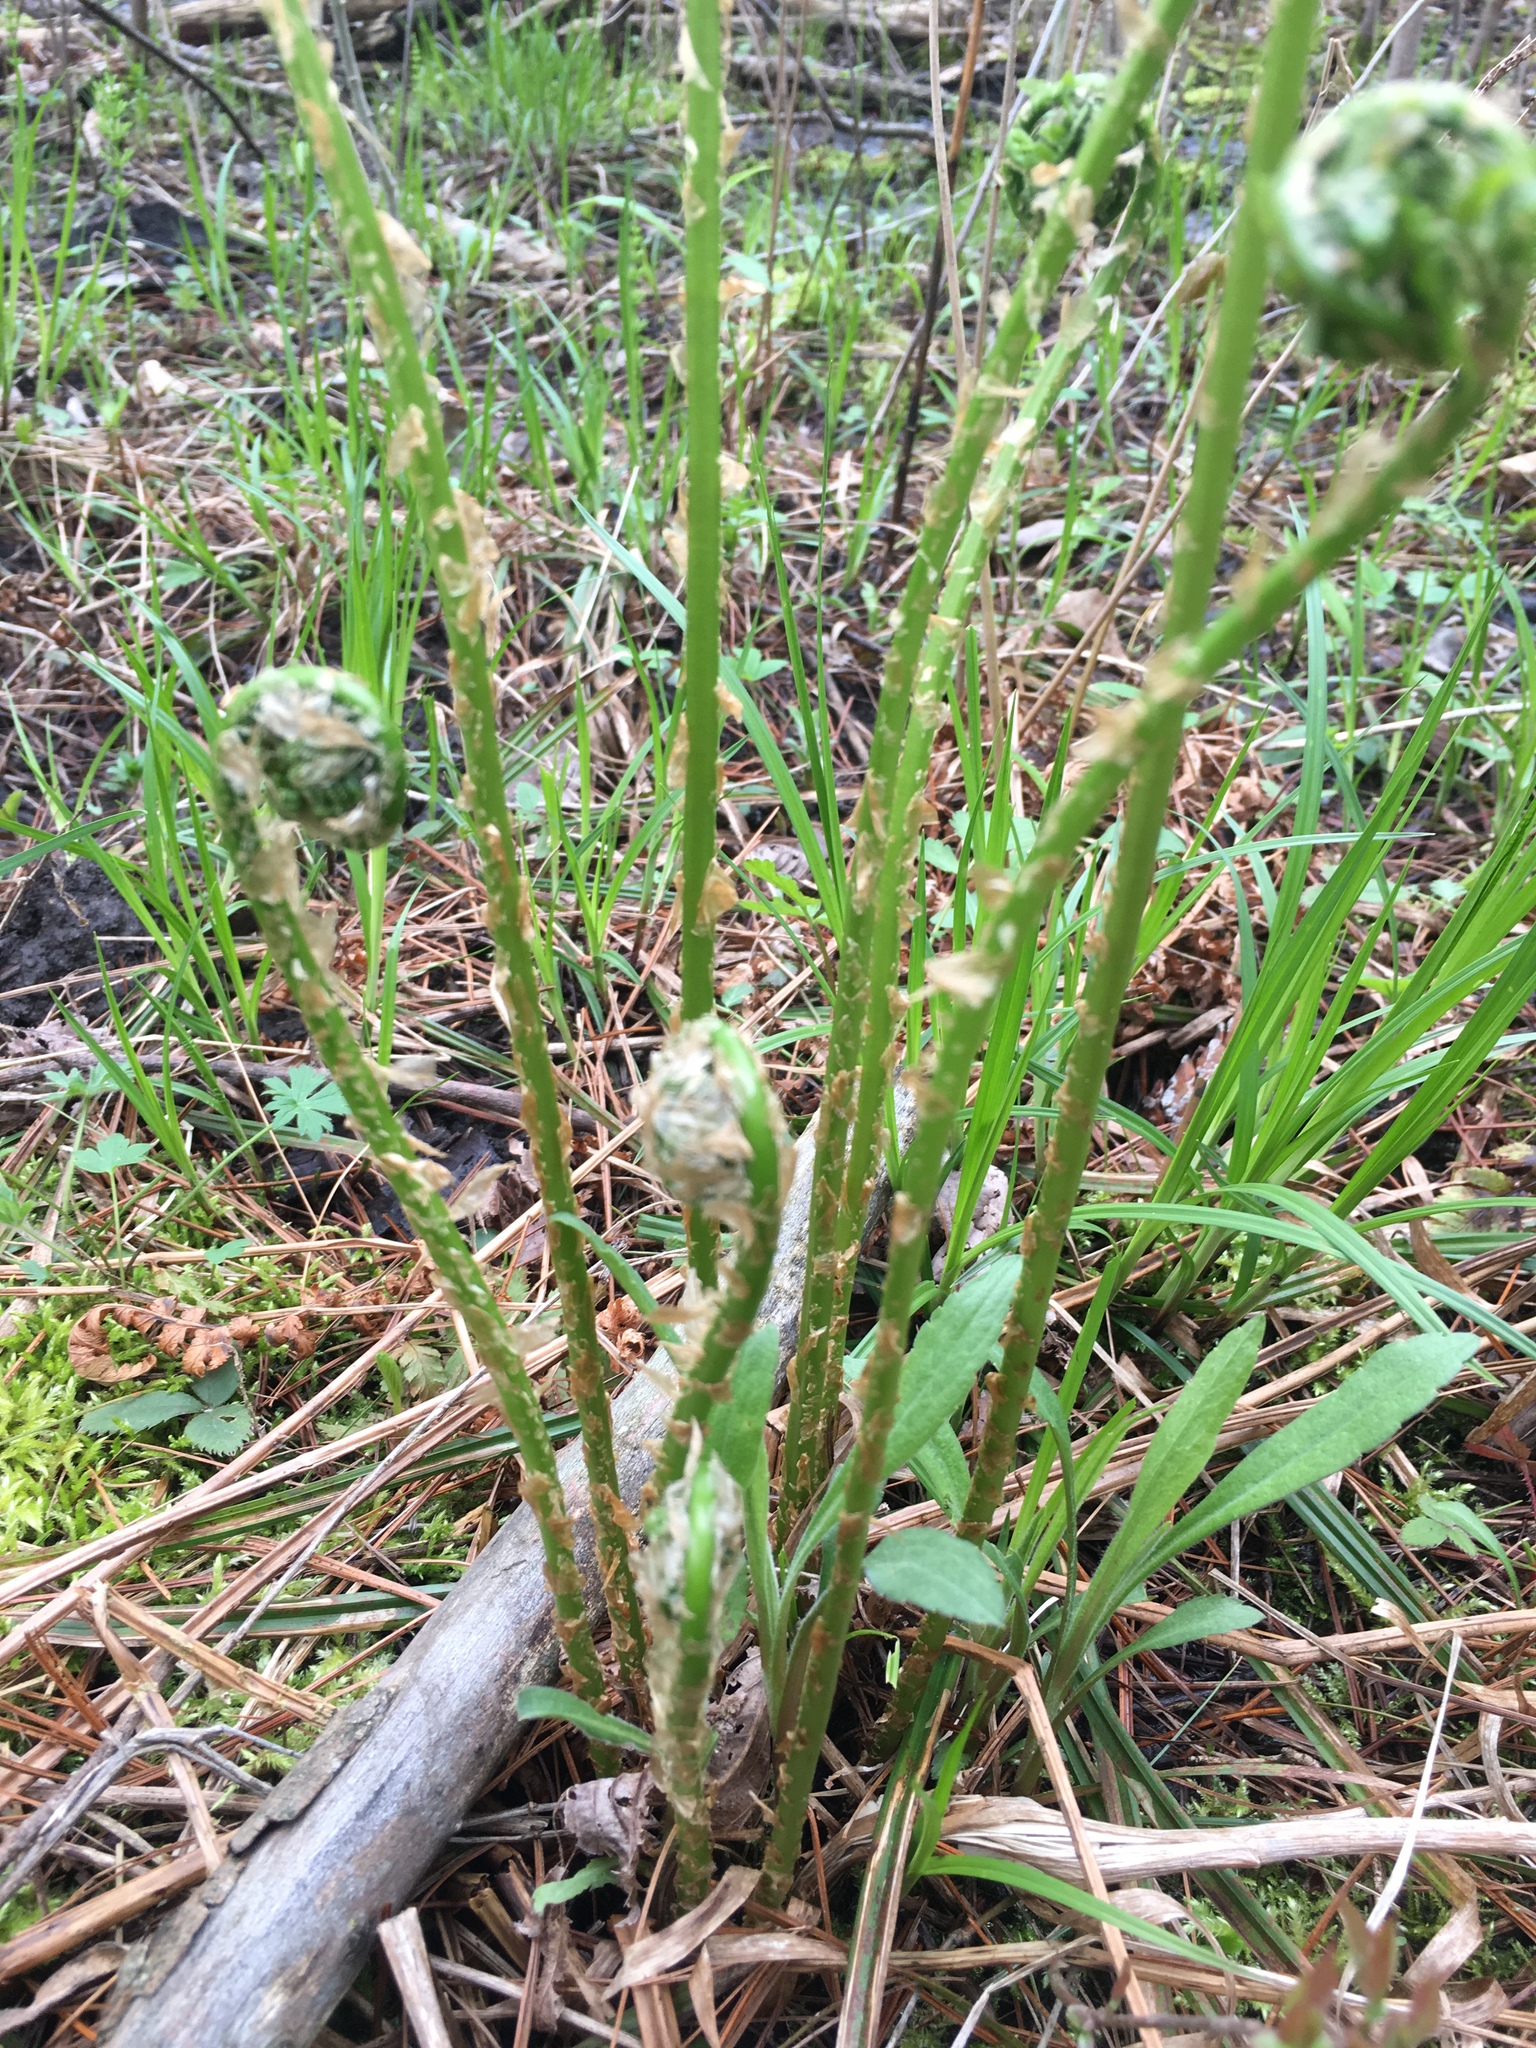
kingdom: Plantae
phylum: Tracheophyta
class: Polypodiopsida
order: Polypodiales
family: Onocleaceae
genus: Matteuccia
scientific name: Matteuccia struthiopteris
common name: Ostrich fern
